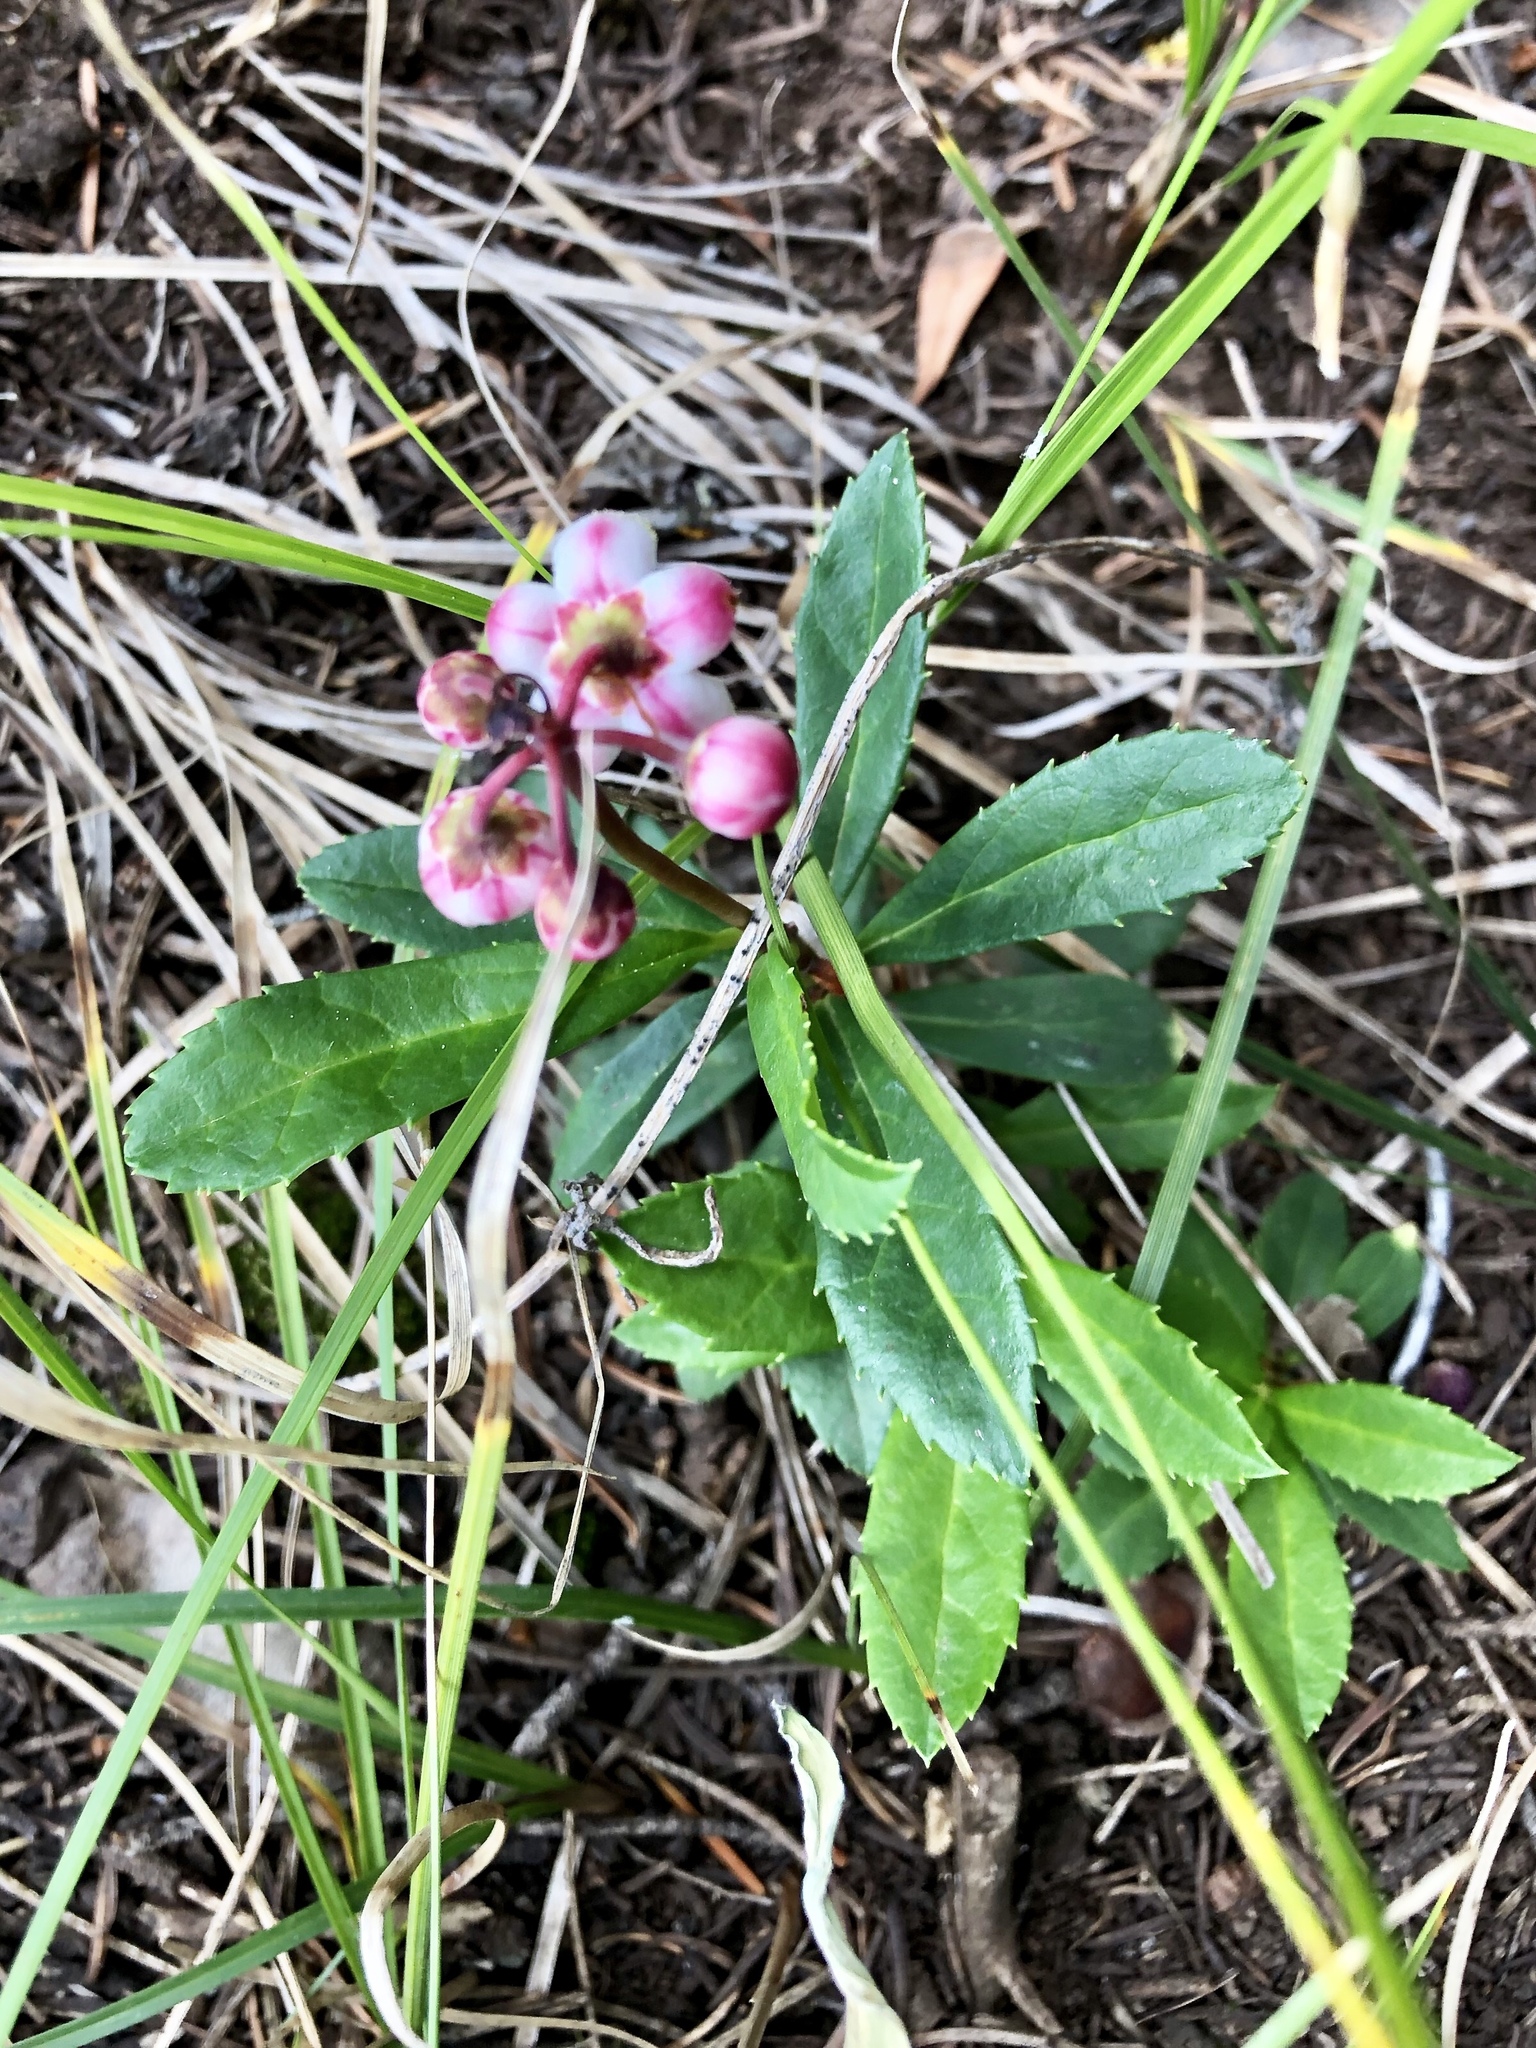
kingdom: Plantae
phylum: Tracheophyta
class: Magnoliopsida
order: Ericales
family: Ericaceae
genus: Chimaphila
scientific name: Chimaphila umbellata
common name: Pipsissewa
